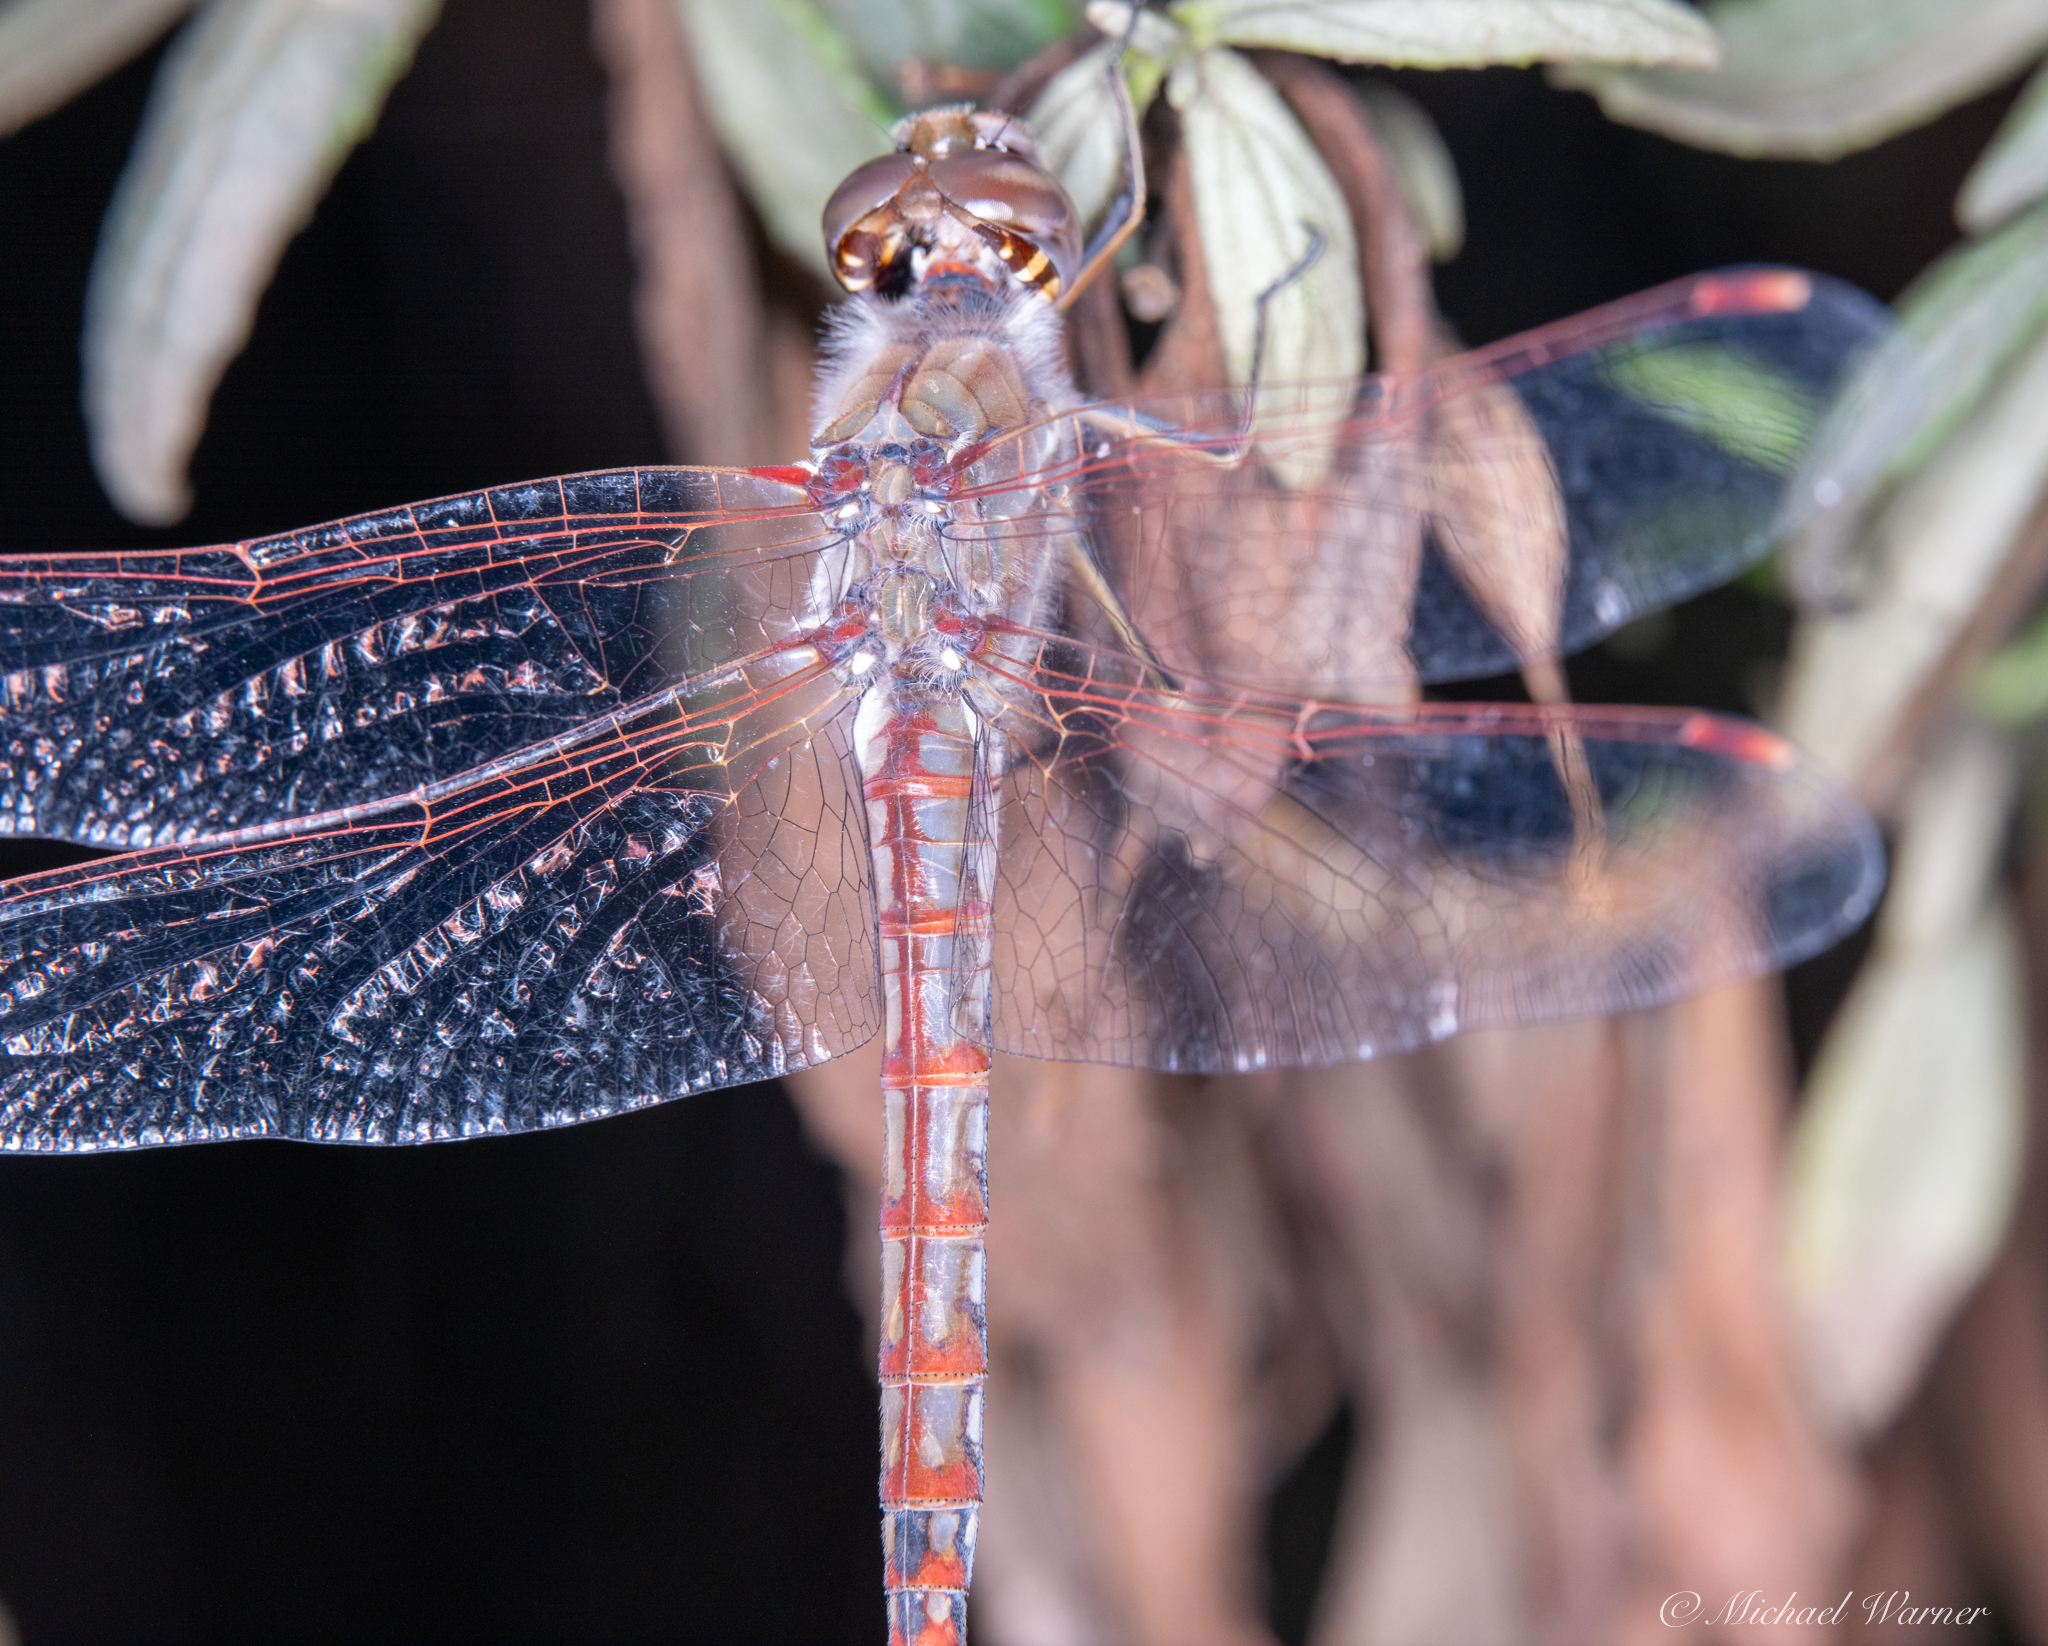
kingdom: Animalia
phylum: Arthropoda
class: Insecta
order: Odonata
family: Libellulidae
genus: Sympetrum
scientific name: Sympetrum corruptum
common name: Variegated meadowhawk
